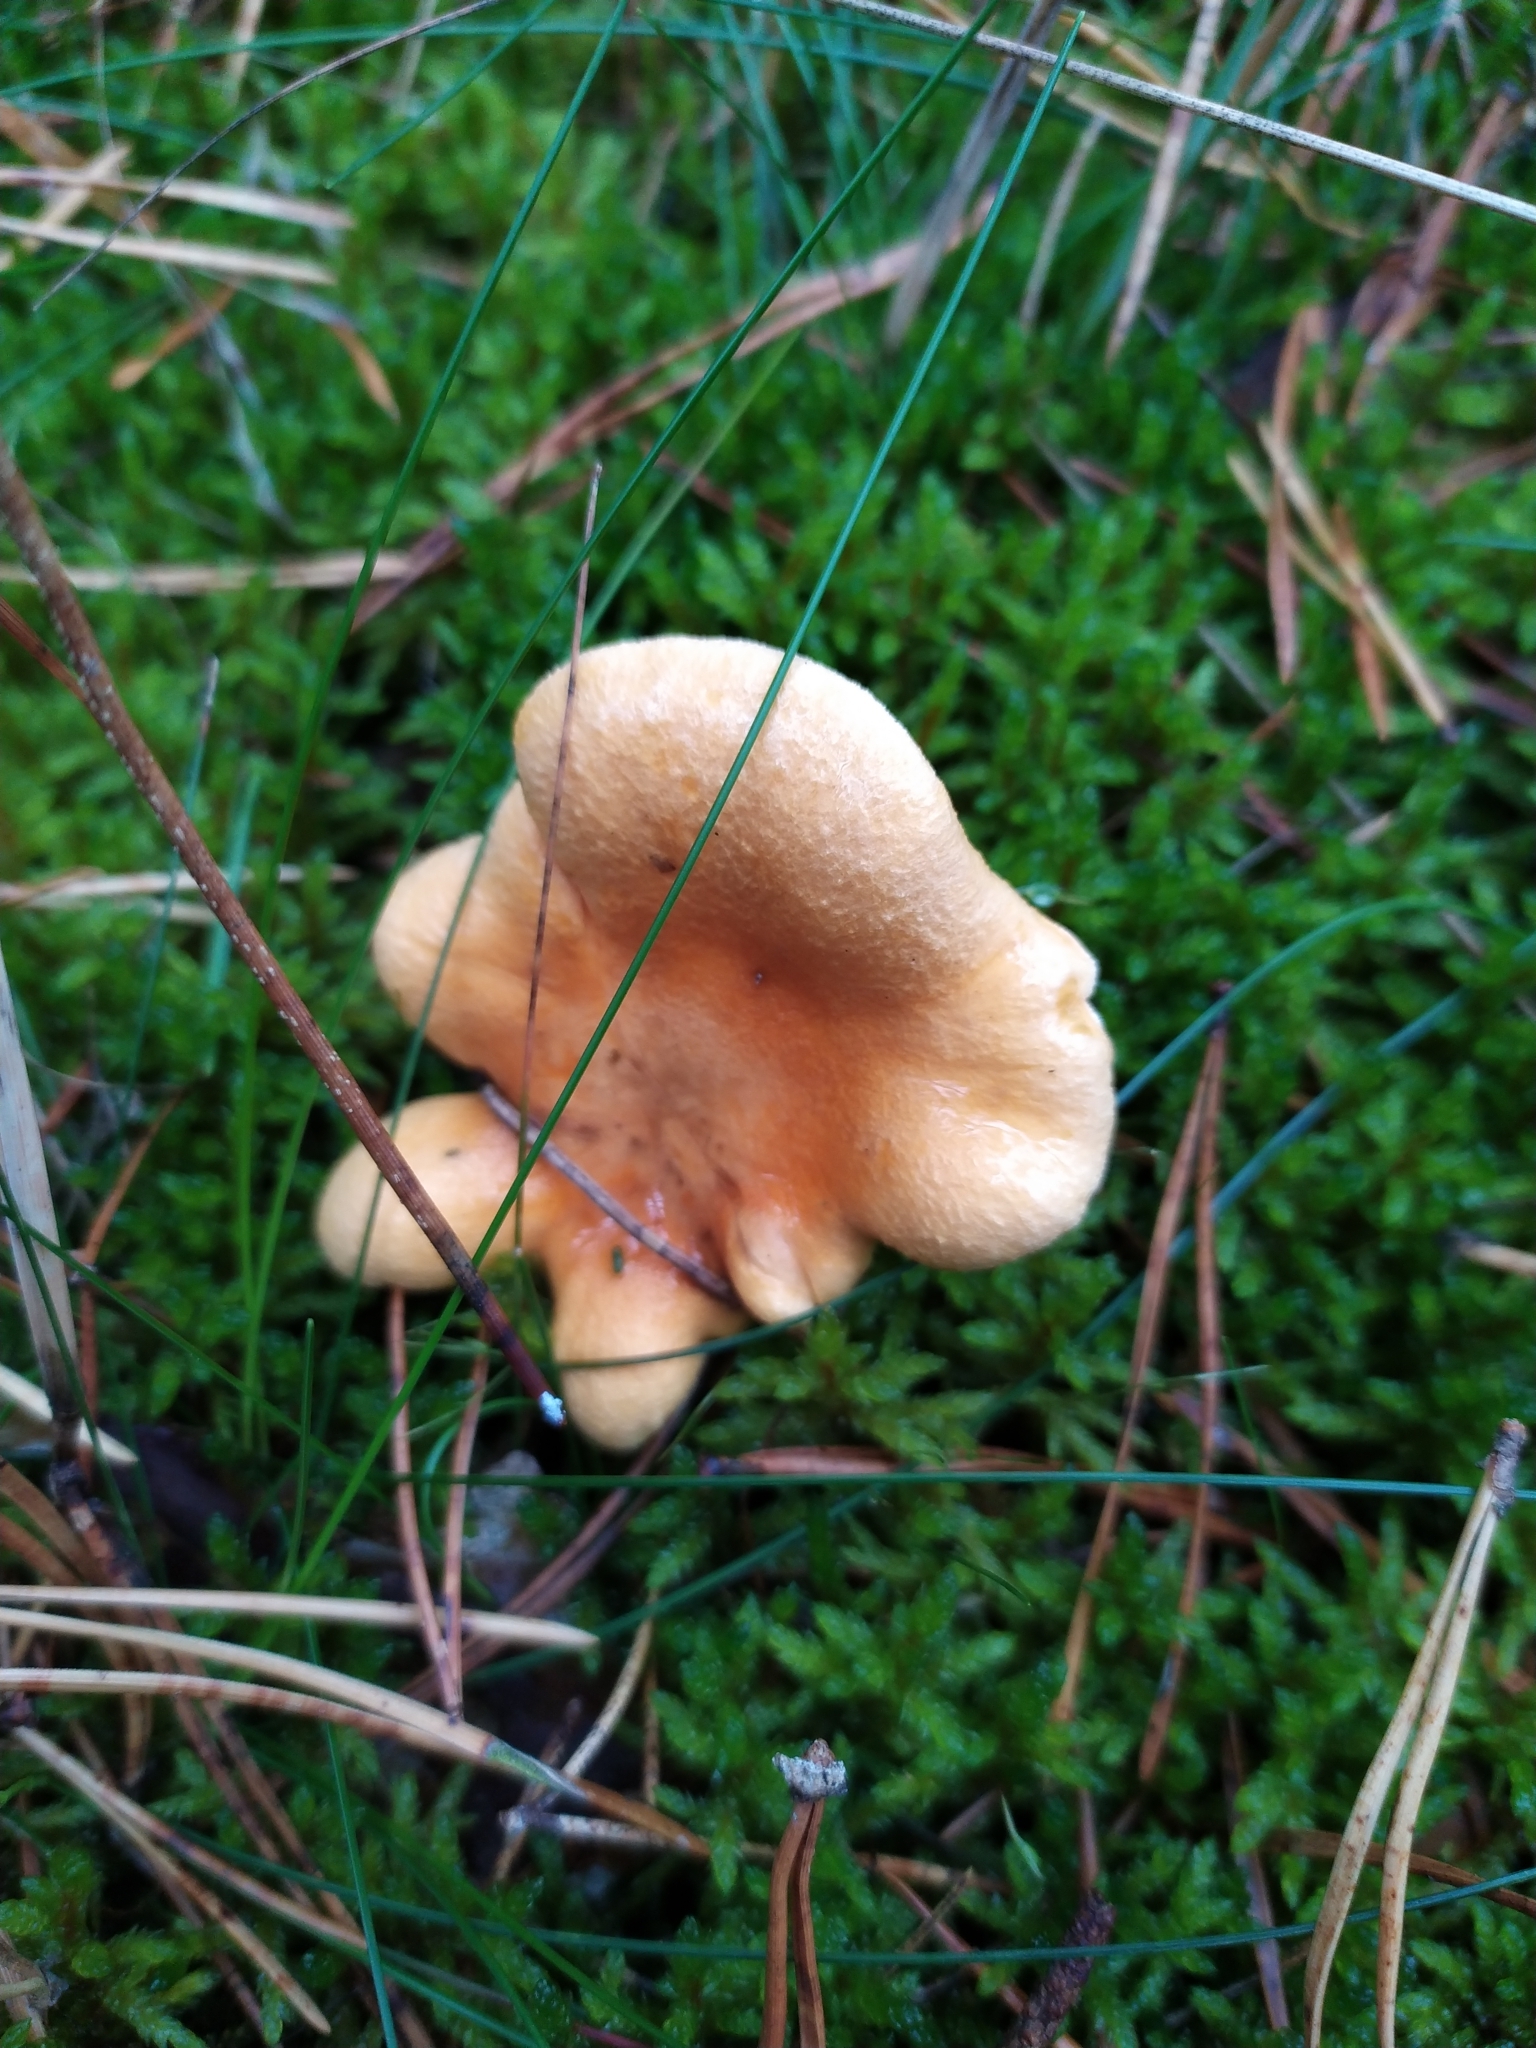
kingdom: Fungi
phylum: Basidiomycota
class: Agaricomycetes
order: Boletales
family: Hygrophoropsidaceae
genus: Hygrophoropsis
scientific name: Hygrophoropsis aurantiaca
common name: False chanterelle
